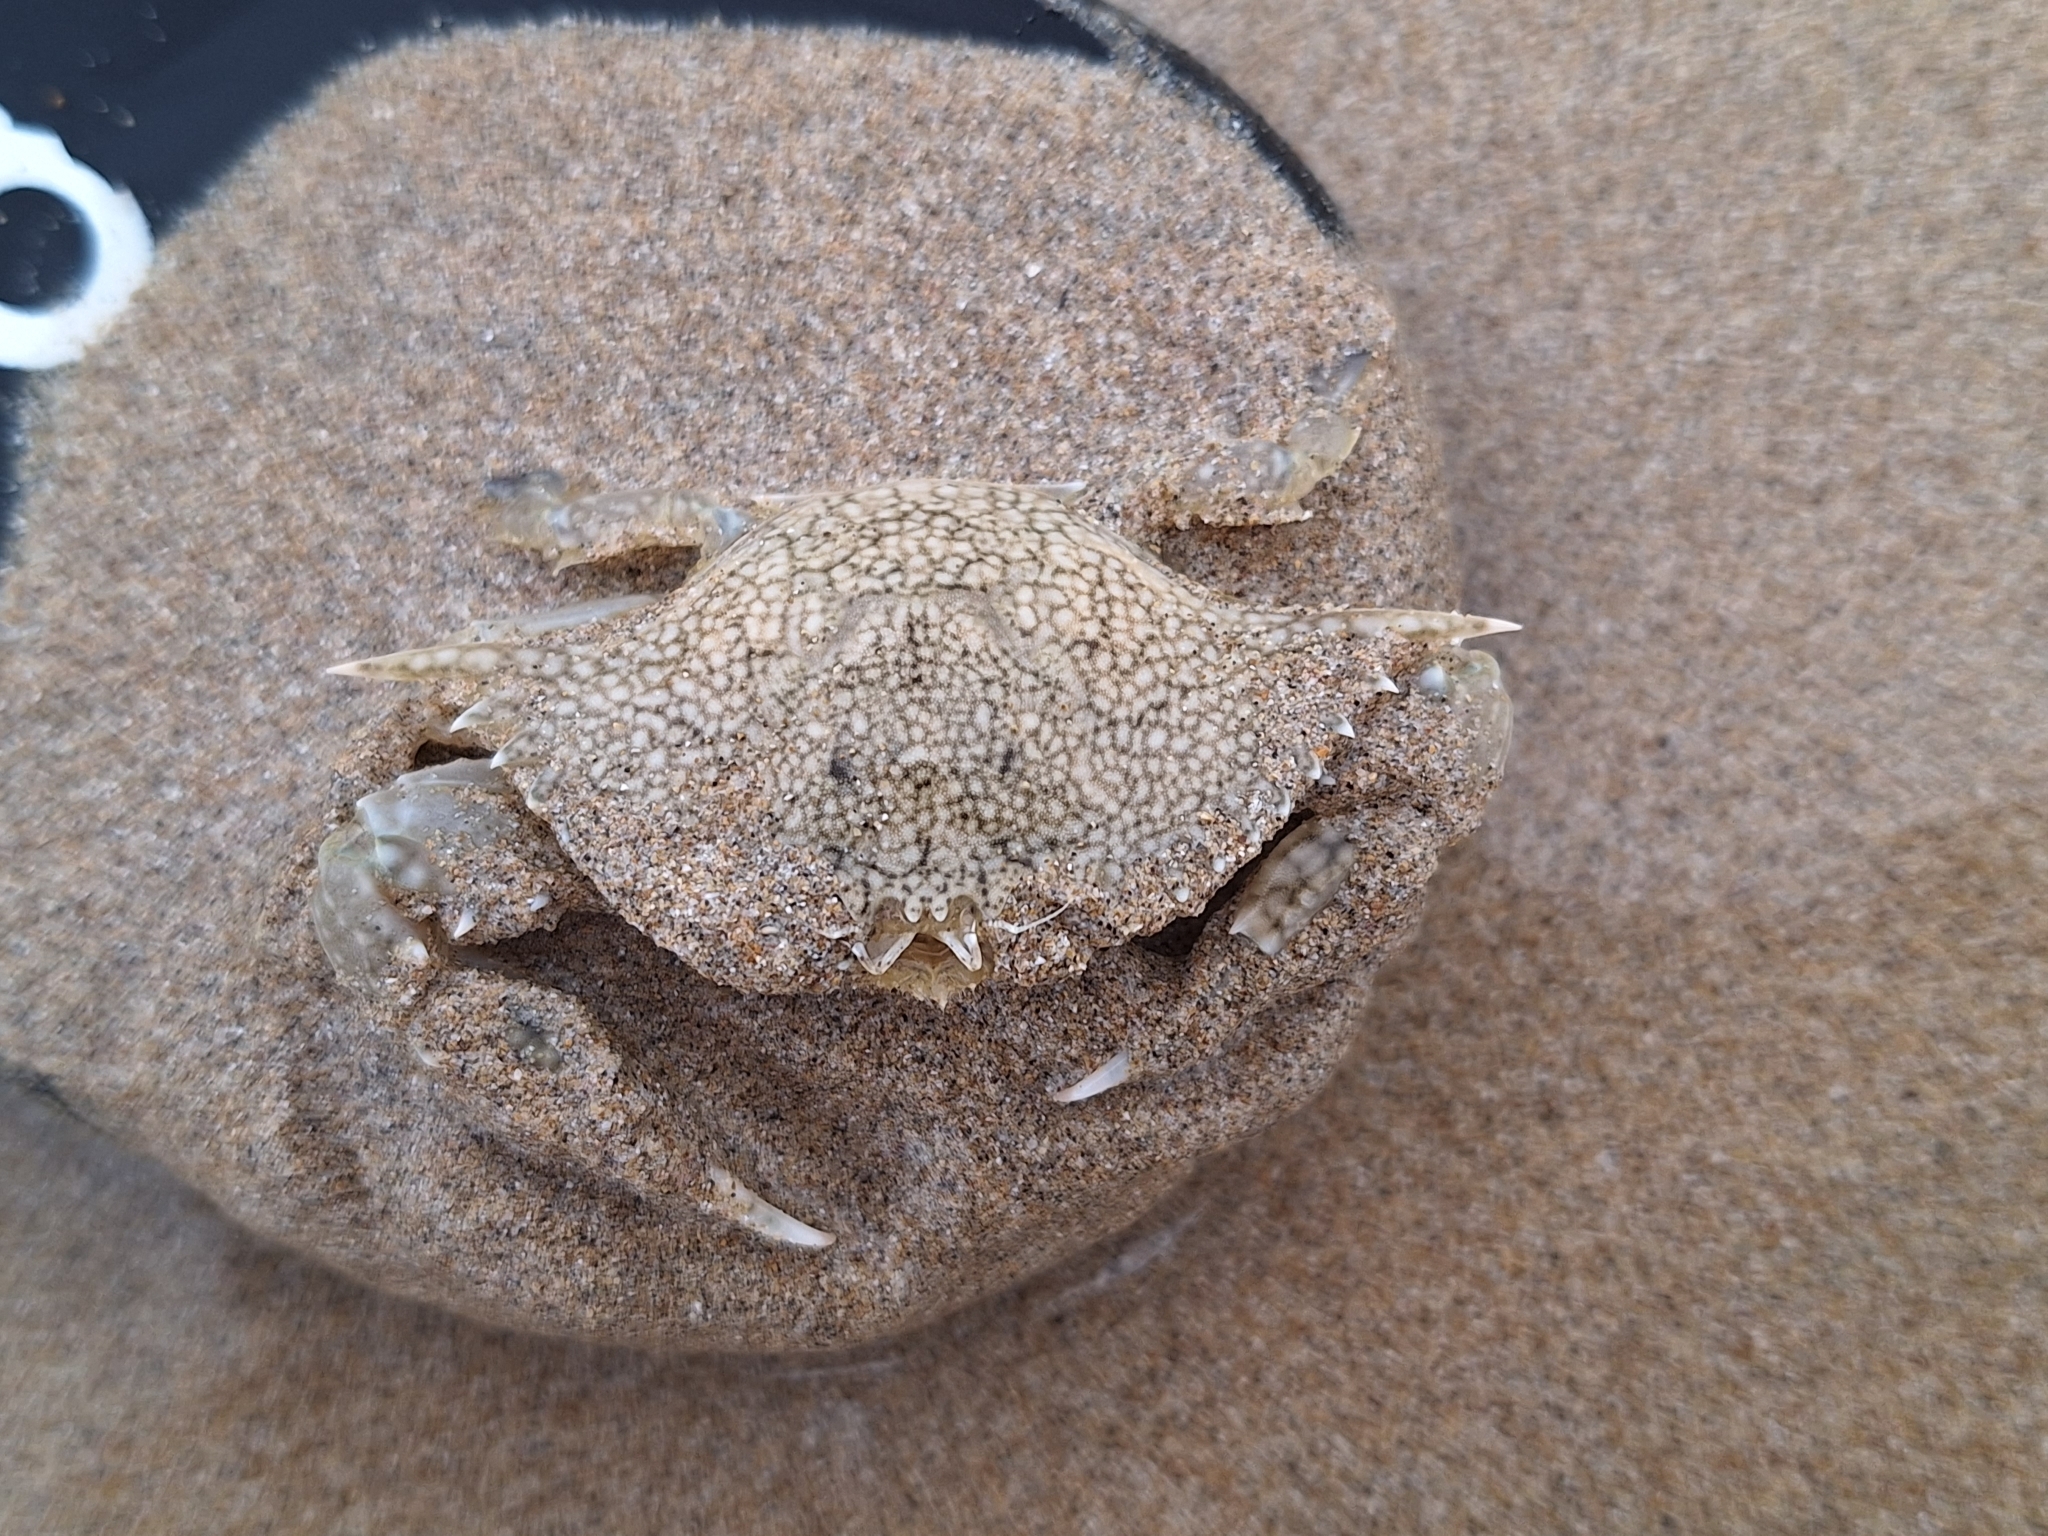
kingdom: Animalia
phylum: Arthropoda
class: Malacostraca
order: Decapoda
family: Portunidae
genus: Arenaeus
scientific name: Arenaeus mexicanus
